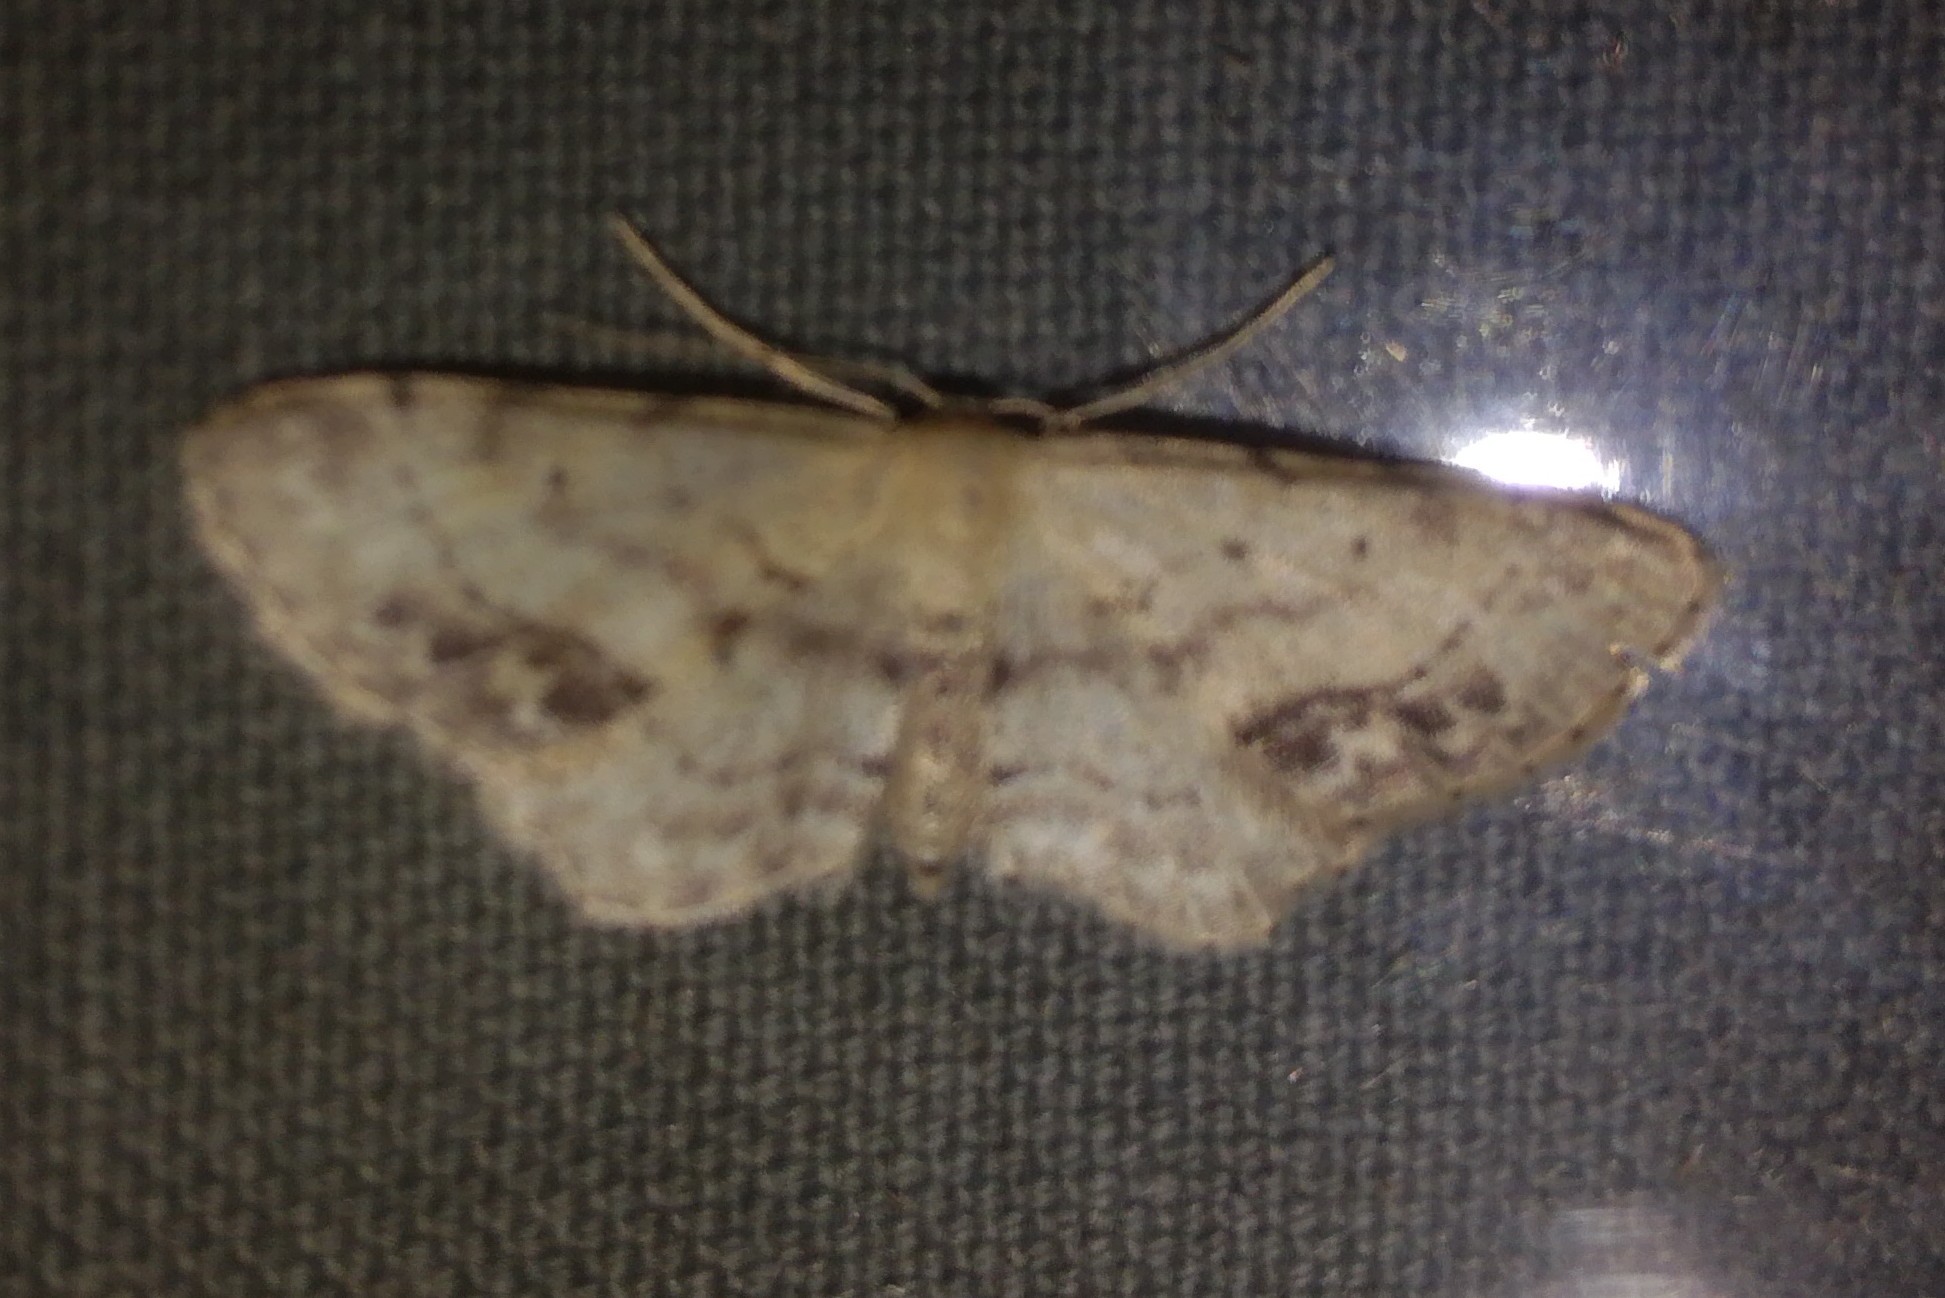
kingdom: Animalia
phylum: Arthropoda
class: Insecta
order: Lepidoptera
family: Geometridae
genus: Idaea
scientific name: Idaea dimidiata
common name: Single-dotted wave
